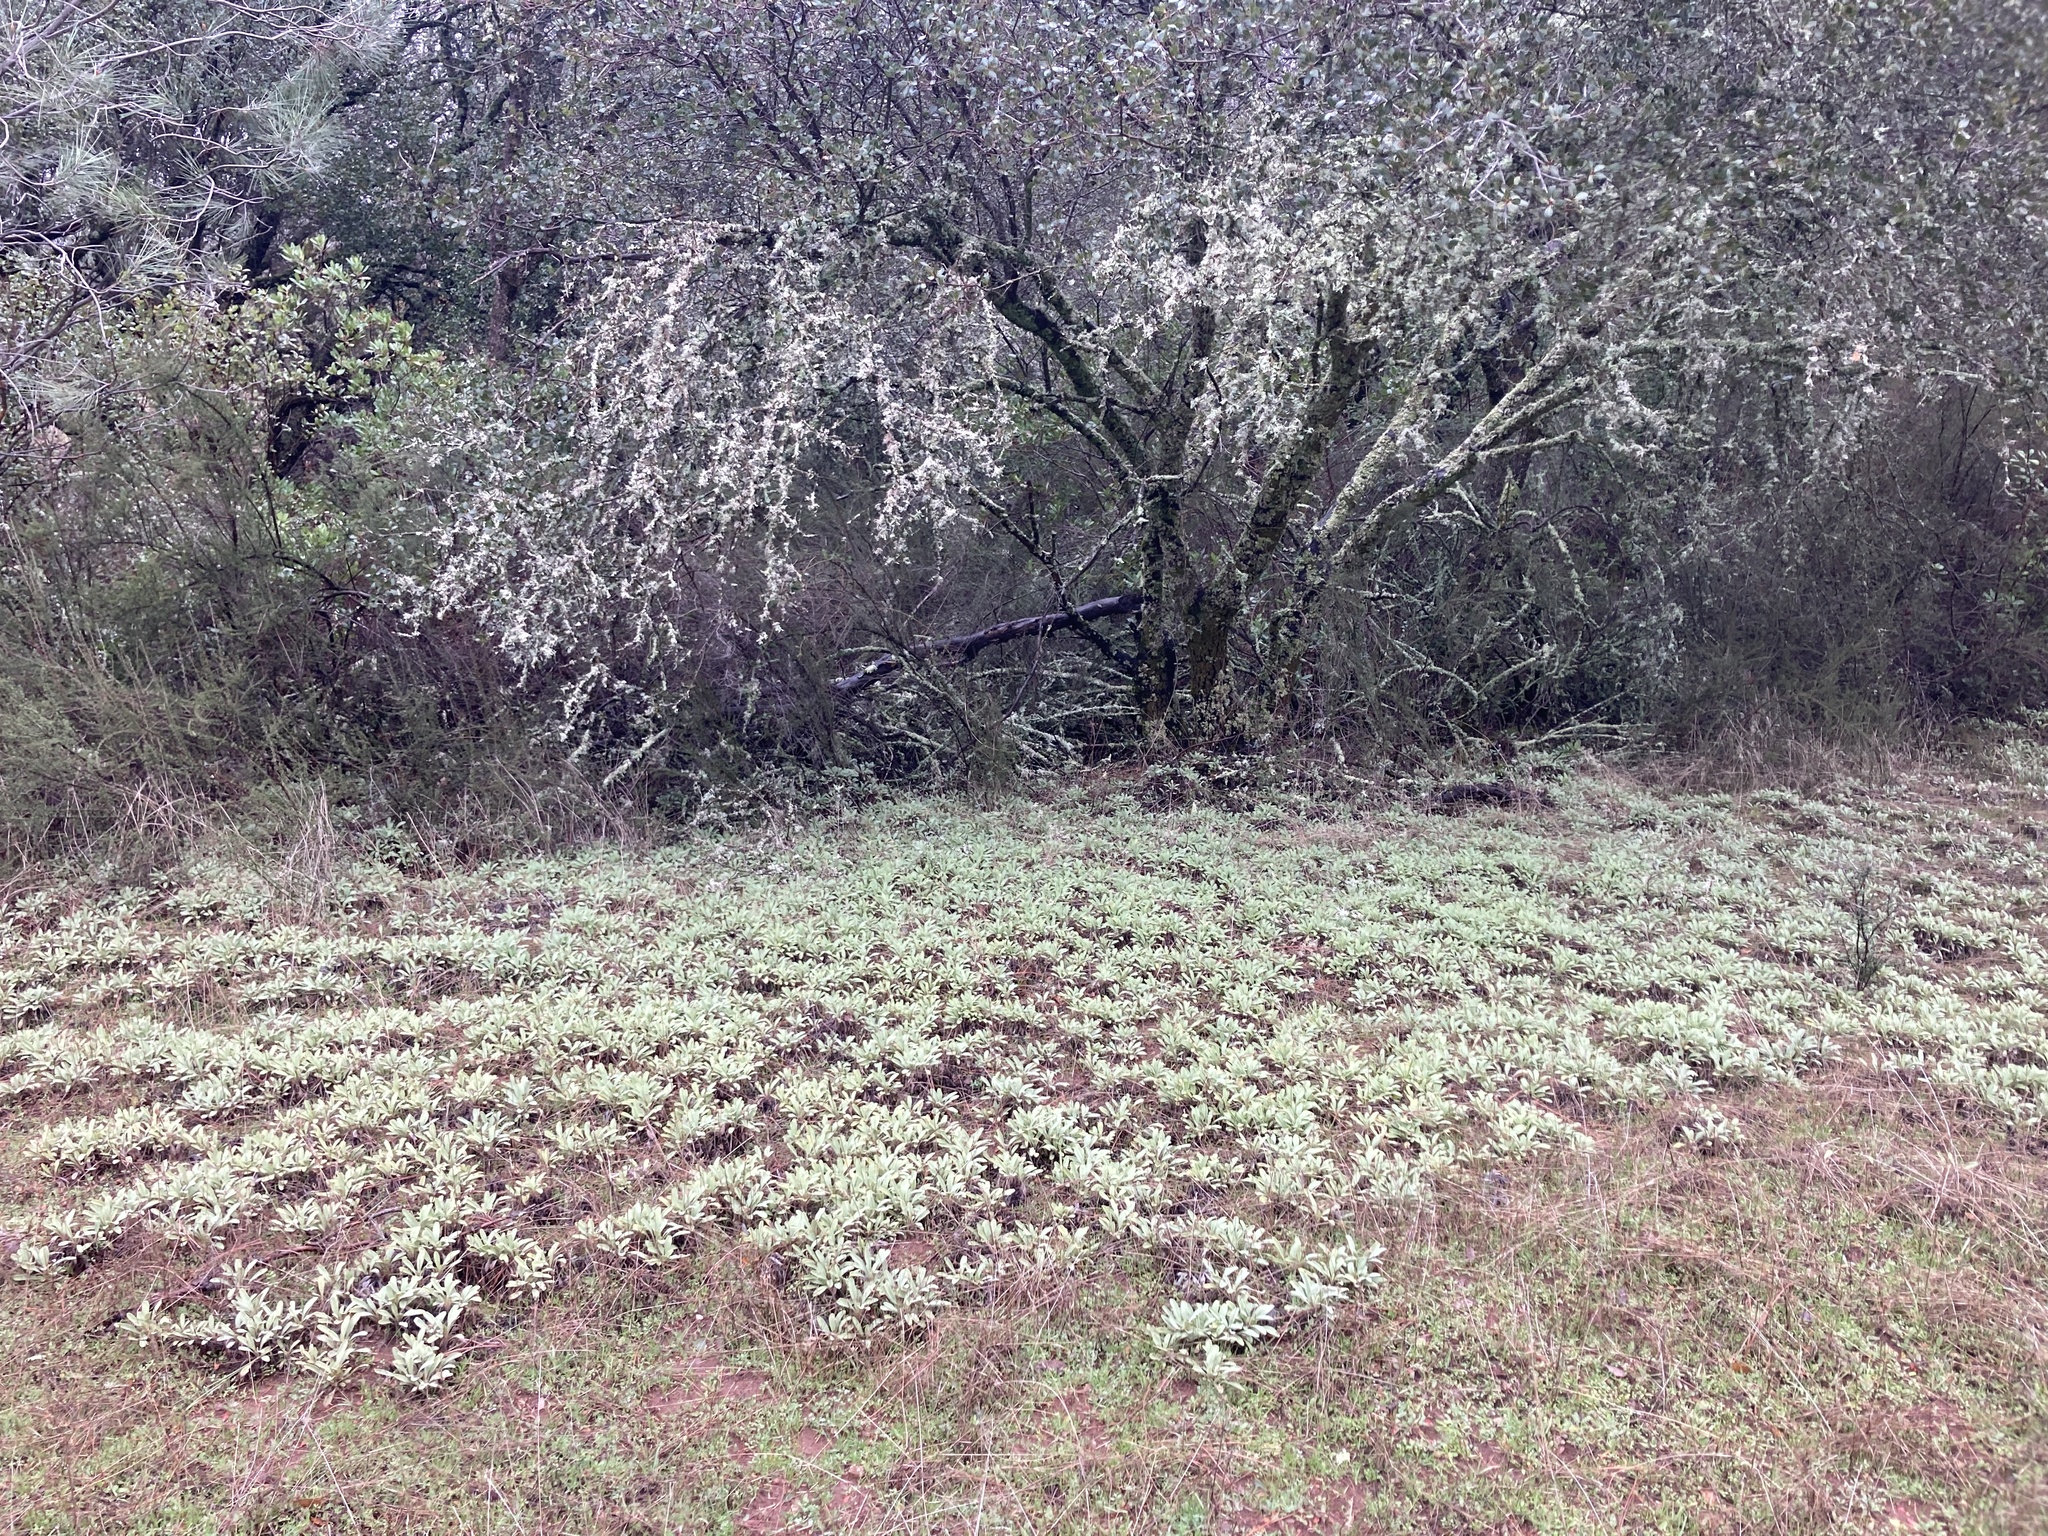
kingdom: Plantae
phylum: Tracheophyta
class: Magnoliopsida
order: Lamiales
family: Lamiaceae
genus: Salvia
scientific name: Salvia sonomensis
